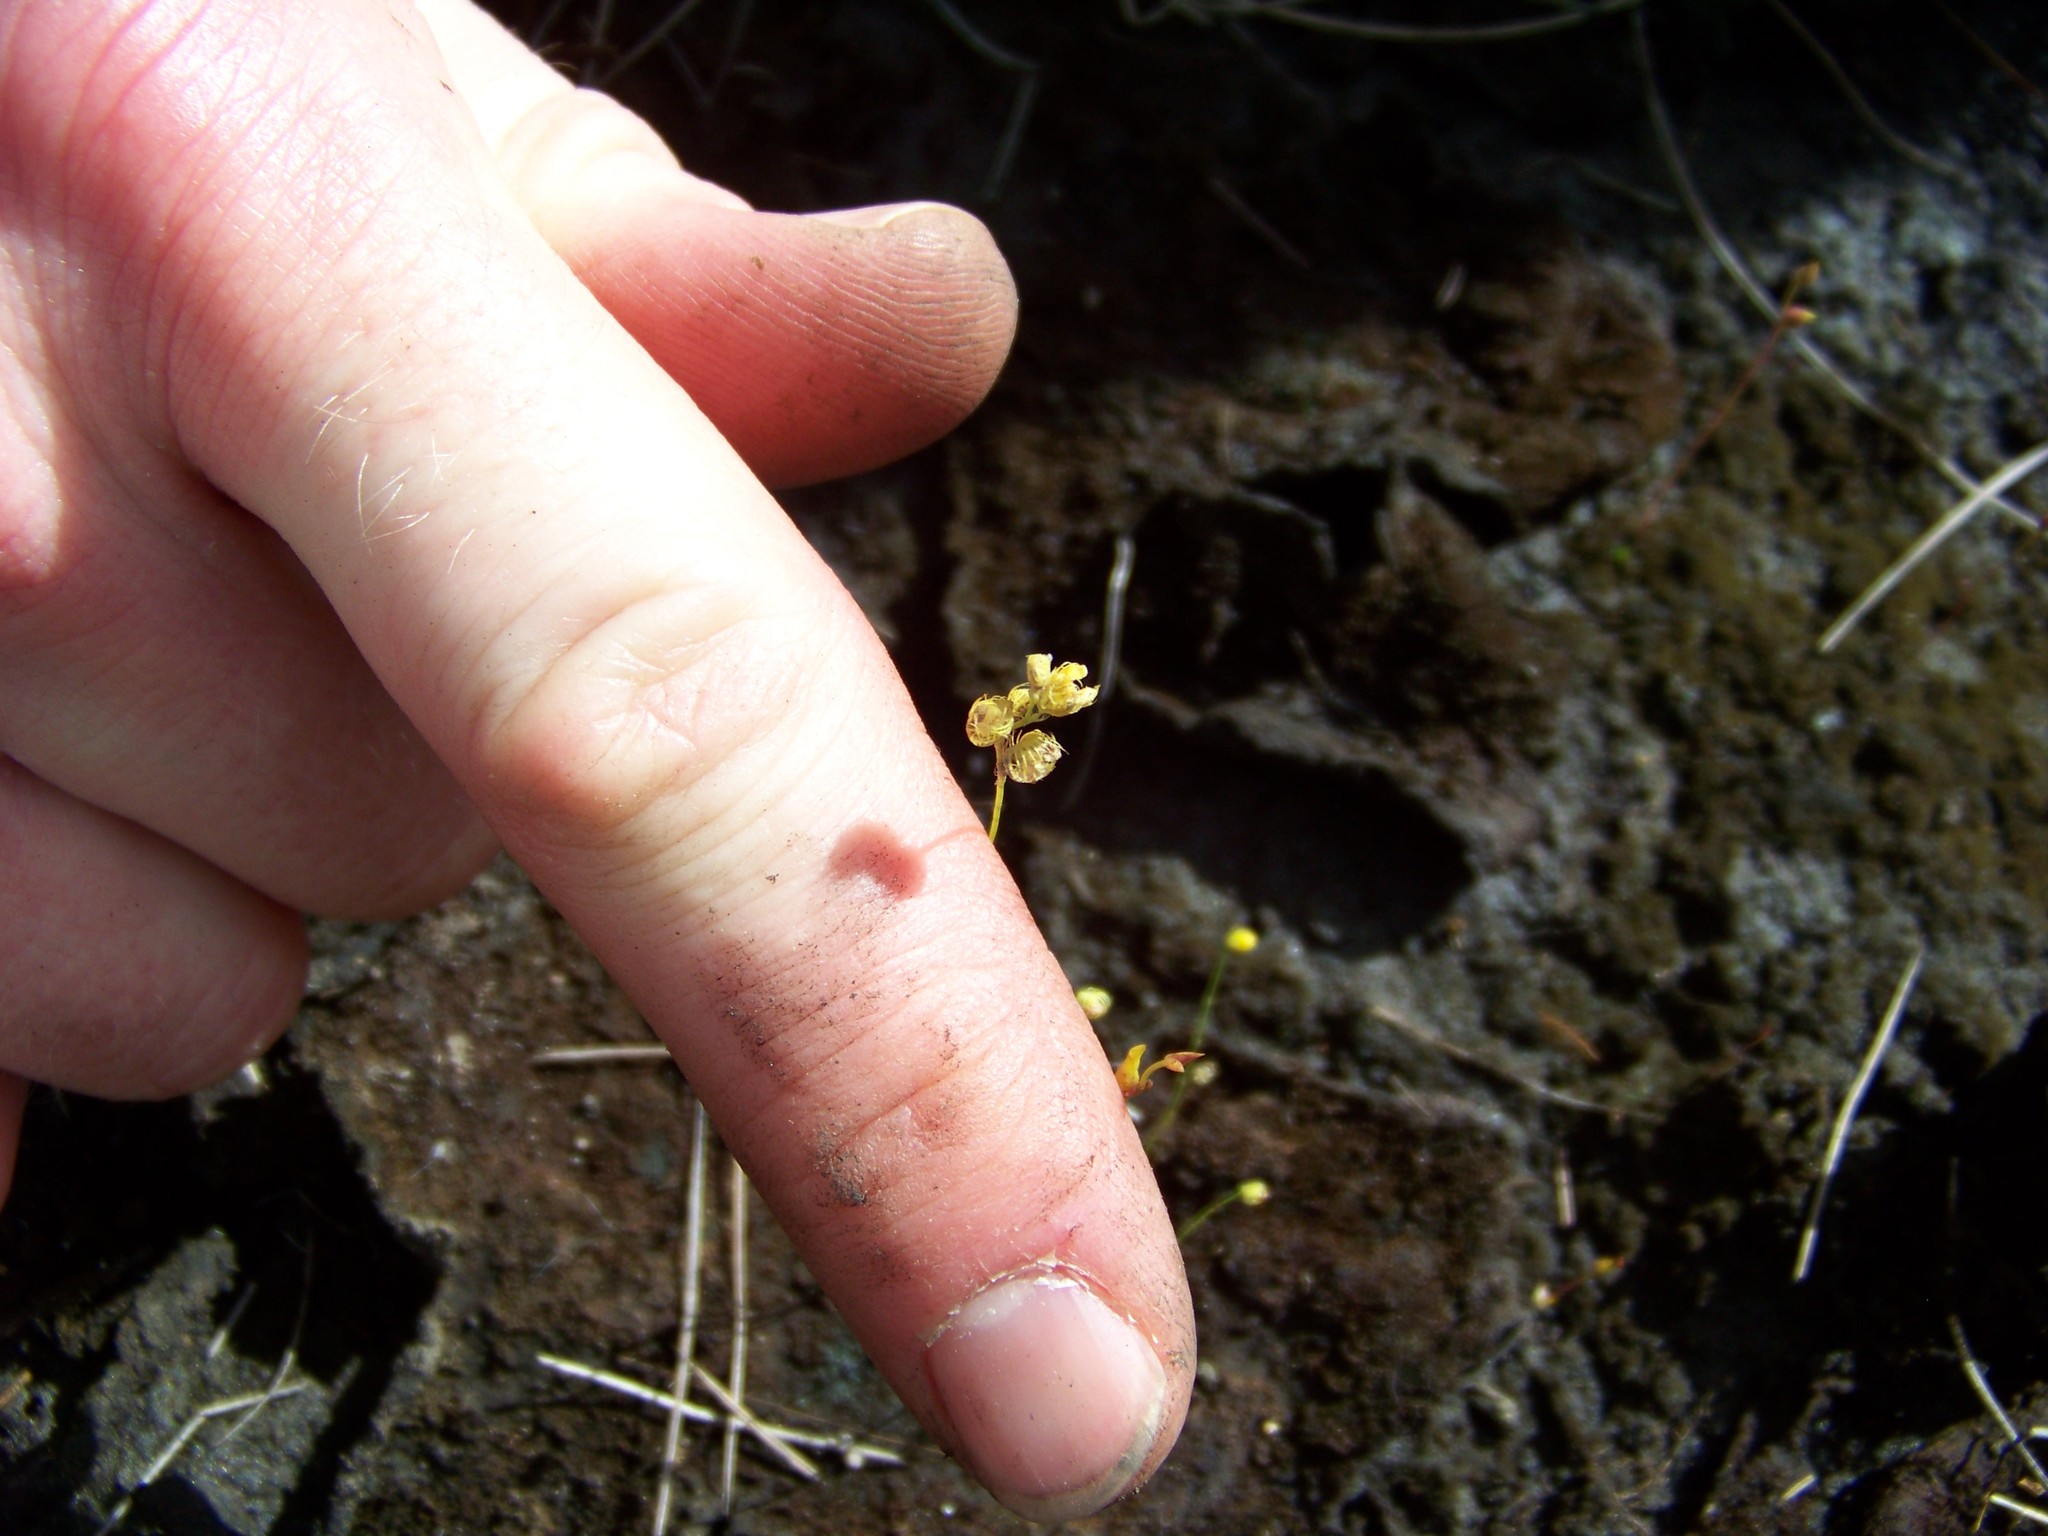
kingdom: Plantae
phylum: Tracheophyta
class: Magnoliopsida
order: Lamiales
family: Lentibulariaceae
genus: Utricularia
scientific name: Utricularia simulans
